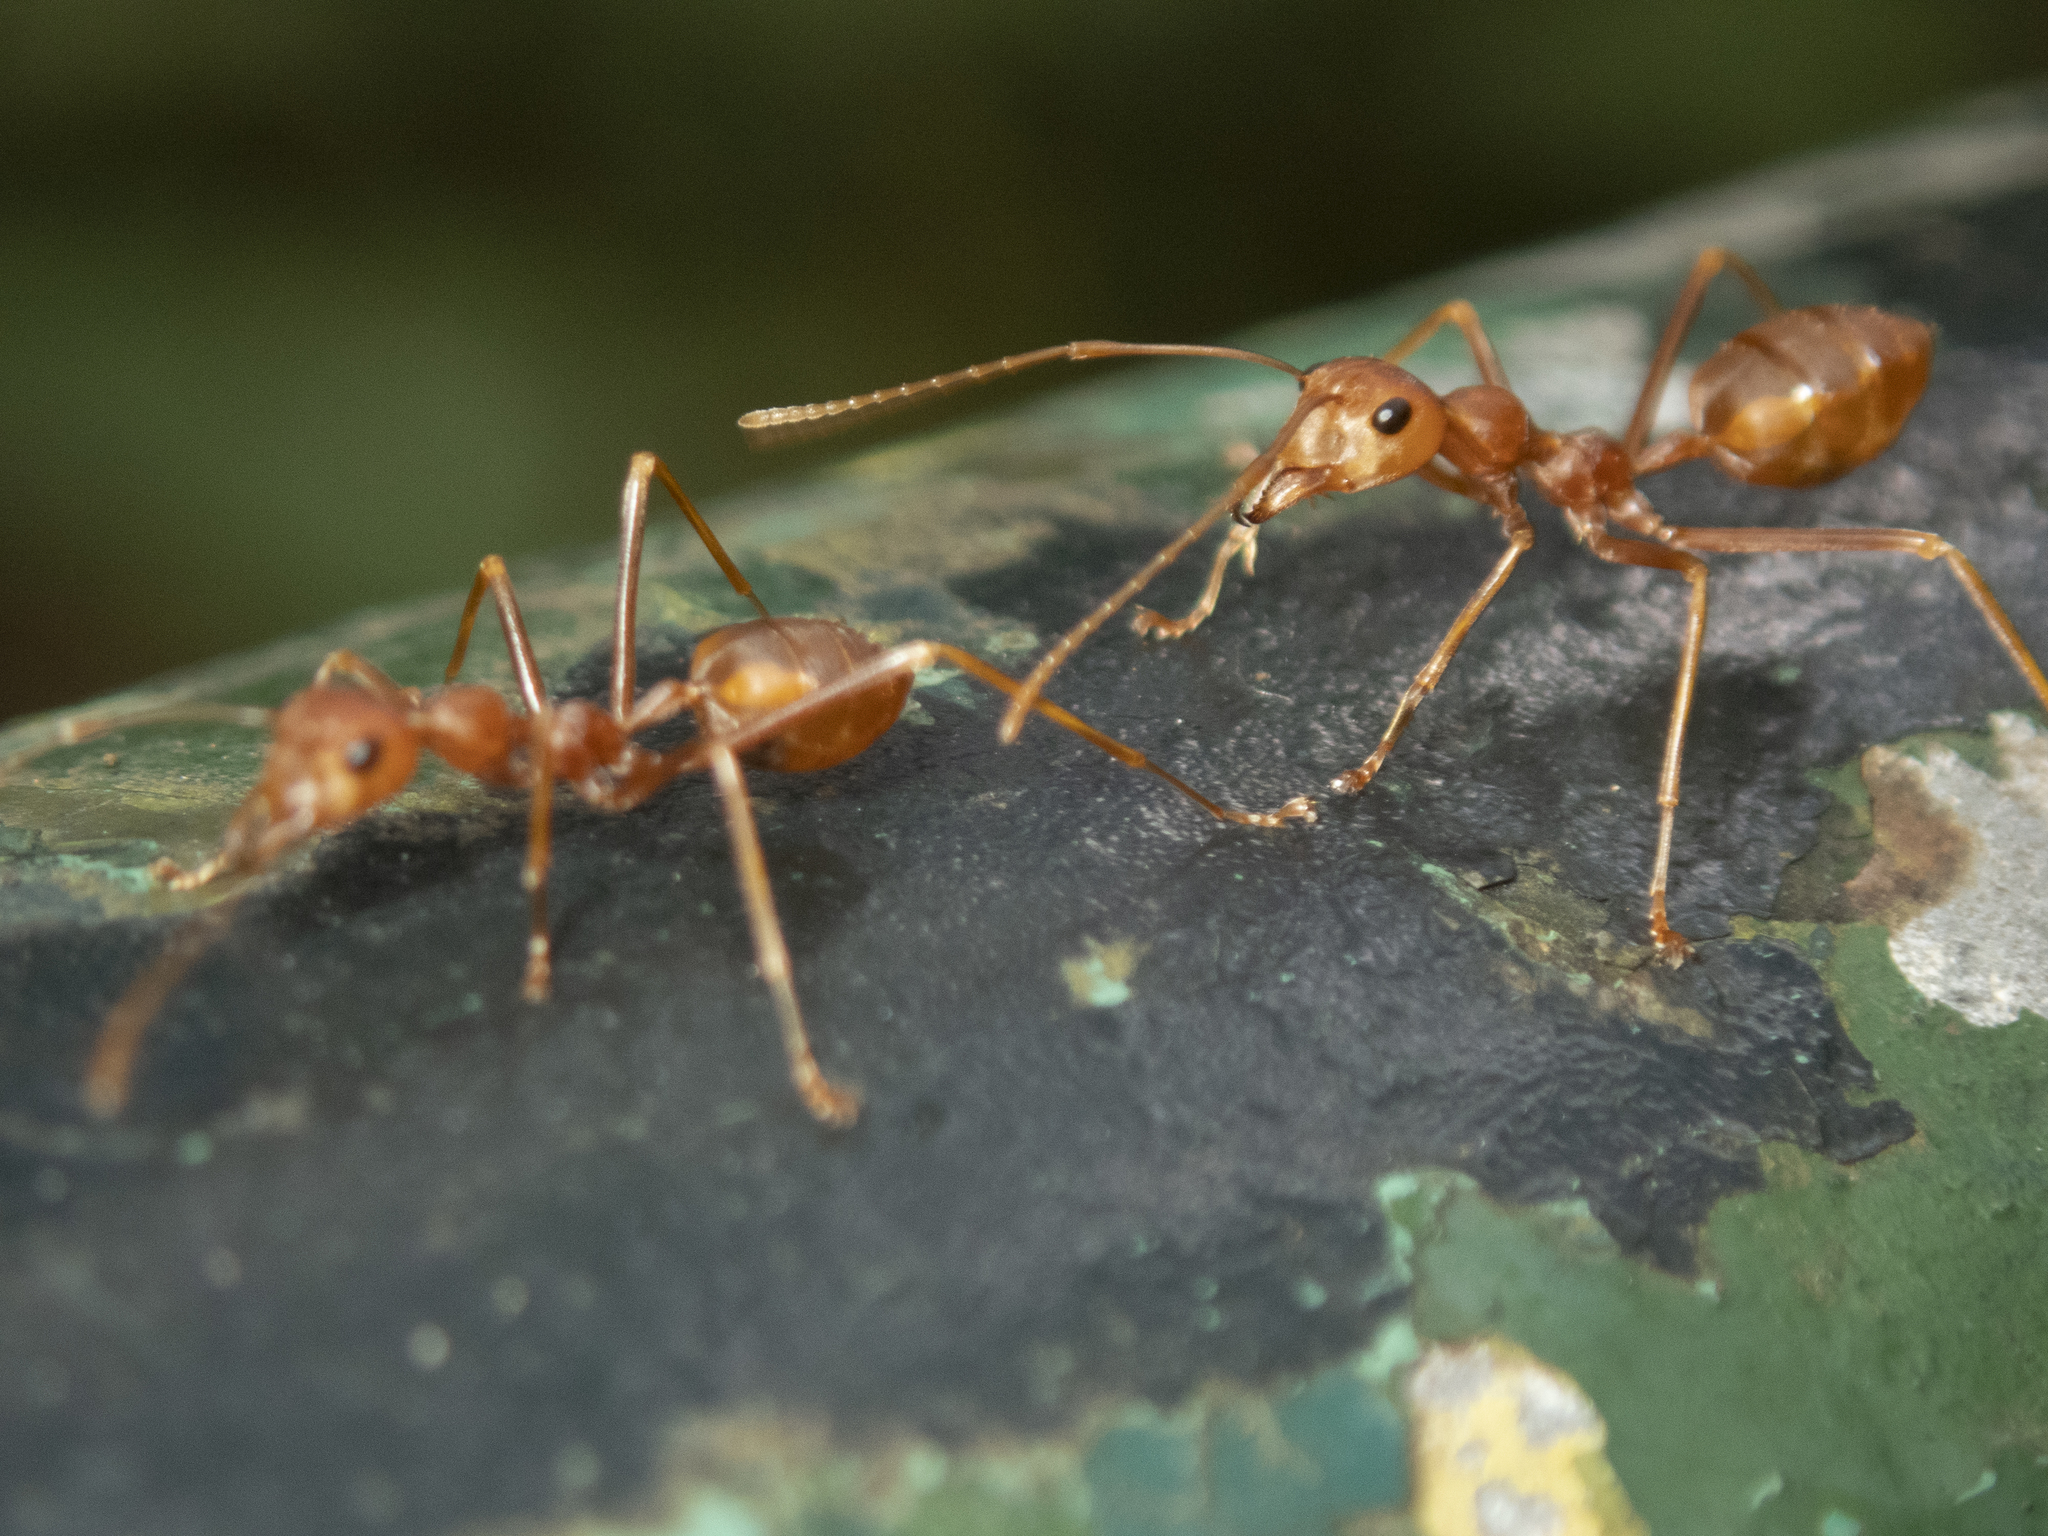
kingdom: Animalia
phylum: Arthropoda
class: Insecta
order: Hymenoptera
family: Formicidae
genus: Oecophylla
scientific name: Oecophylla smaragdina
